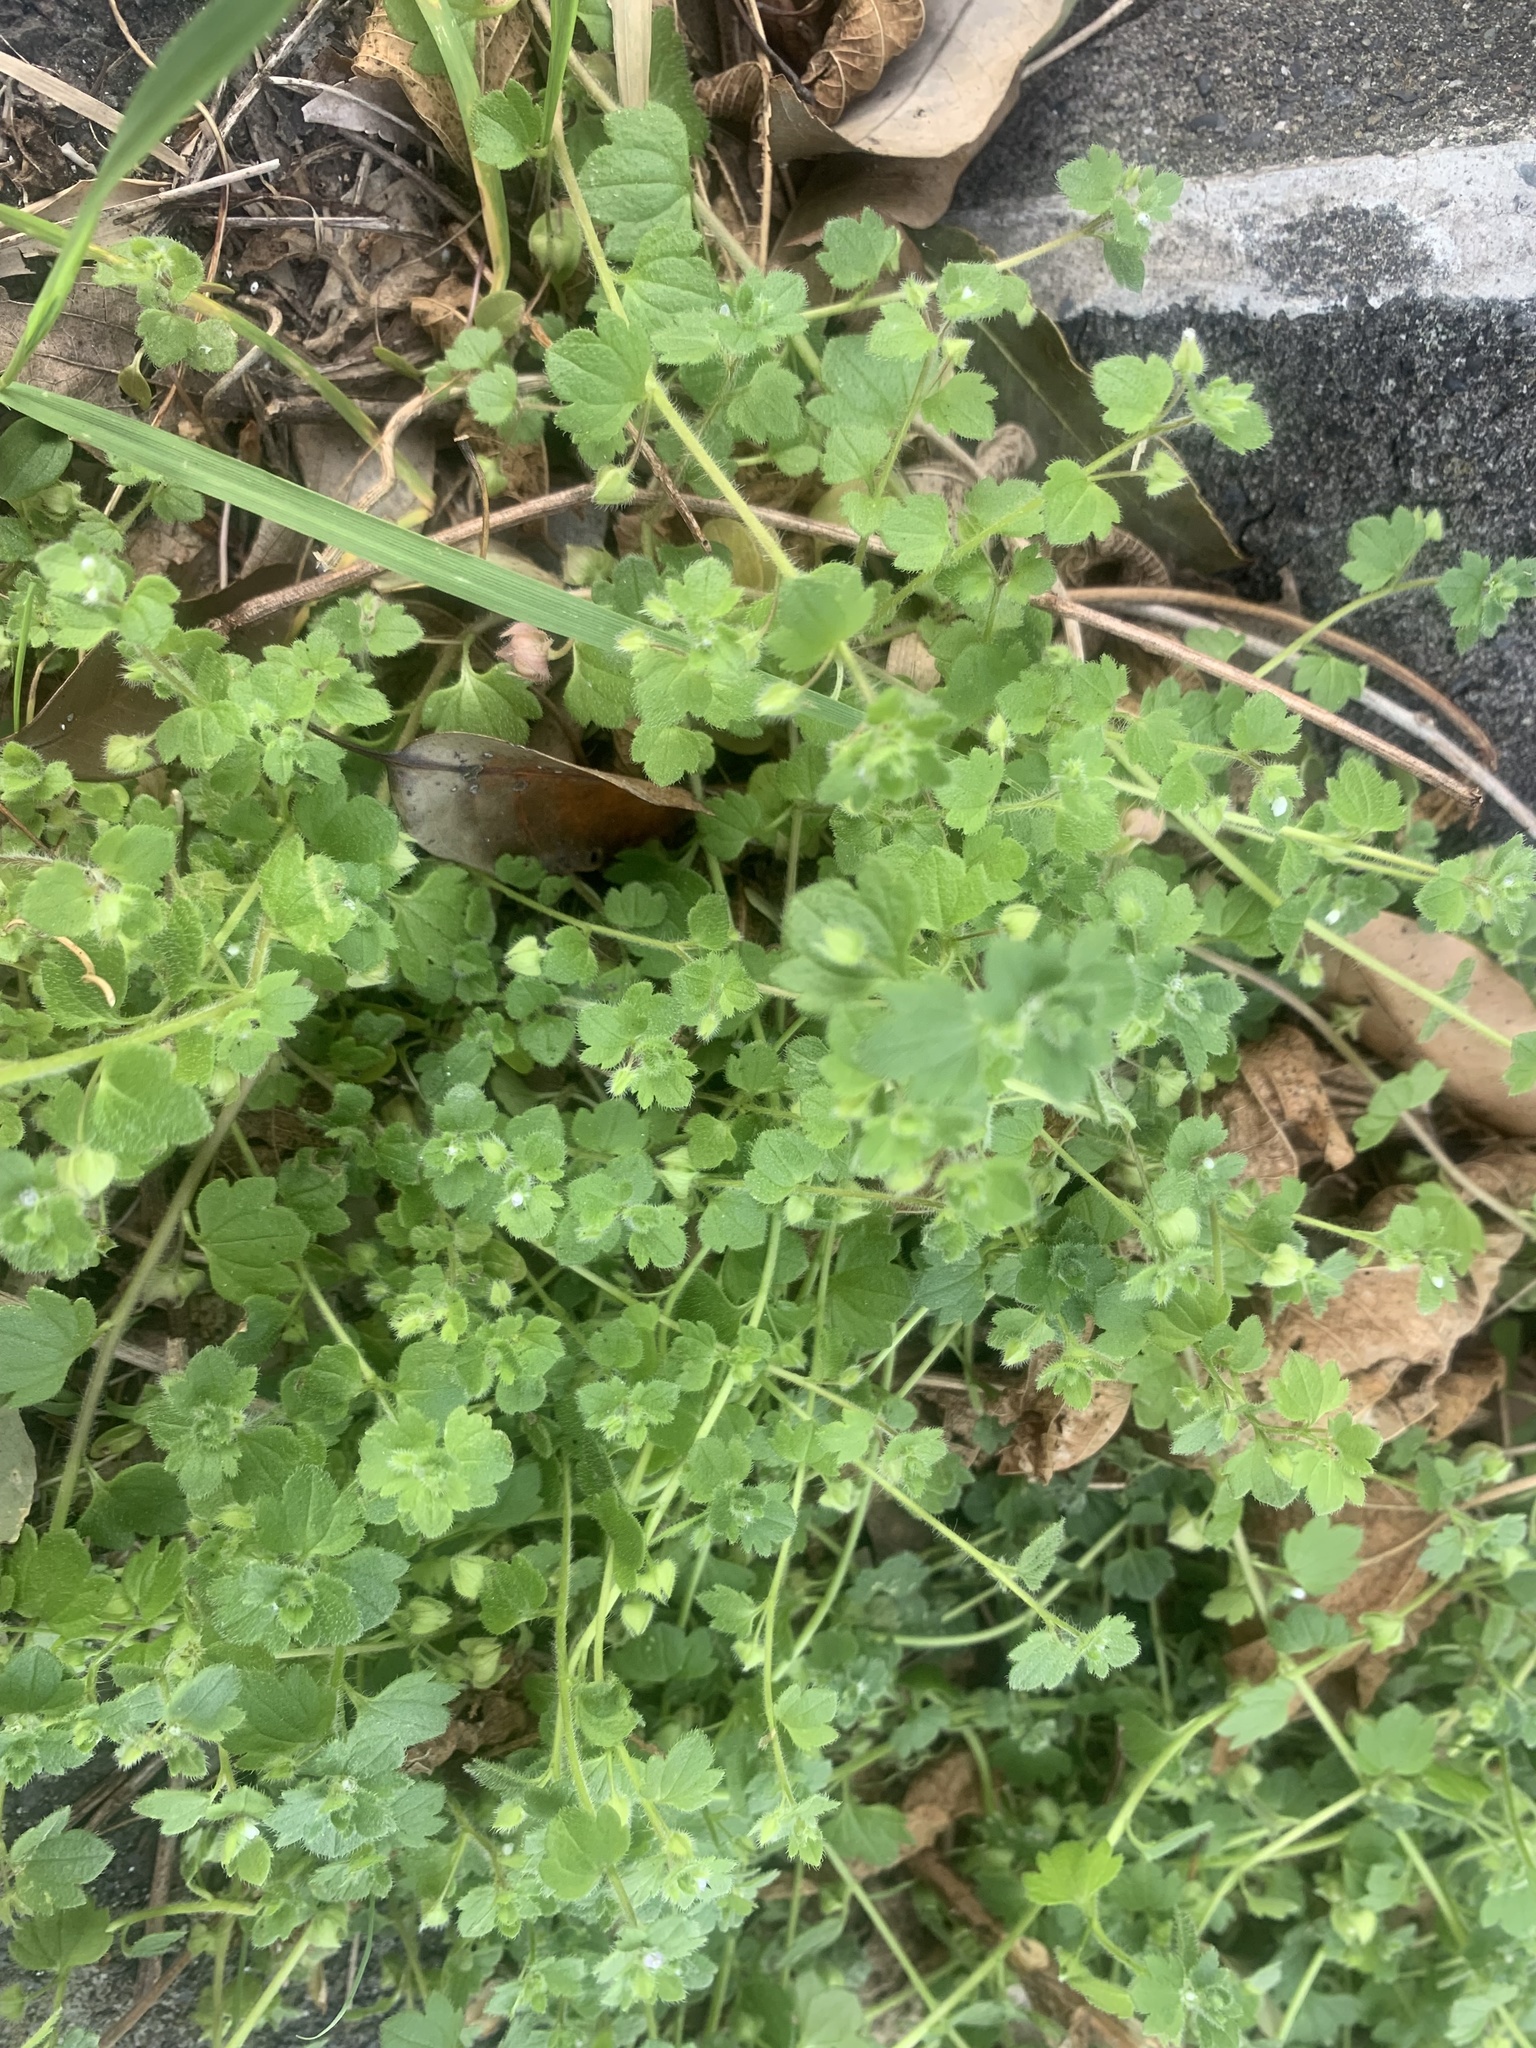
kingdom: Plantae
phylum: Tracheophyta
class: Magnoliopsida
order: Lamiales
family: Plantaginaceae
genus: Veronica
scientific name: Veronica hederifolia
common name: Ivy-leaved speedwell
